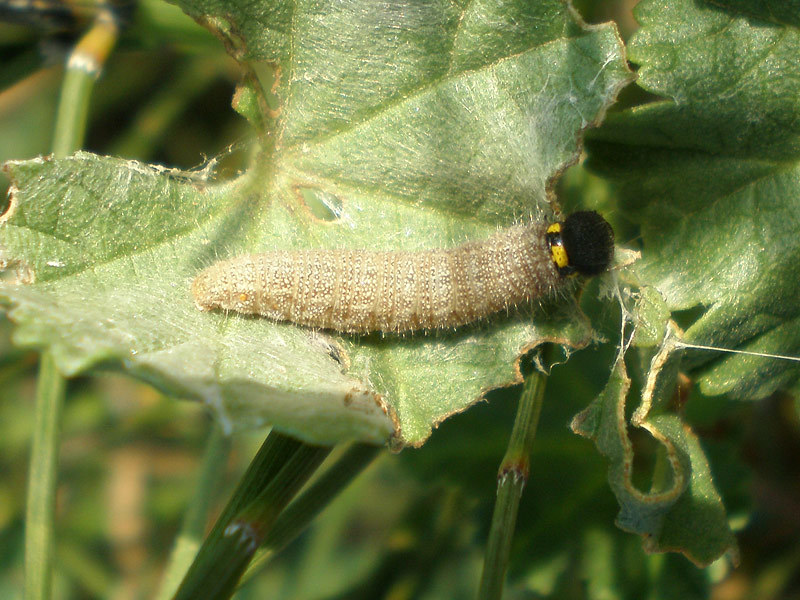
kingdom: Animalia
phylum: Arthropoda
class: Insecta
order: Lepidoptera
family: Hesperiidae
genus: Carcharodus
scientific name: Carcharodus alceae
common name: Mallow skipper
